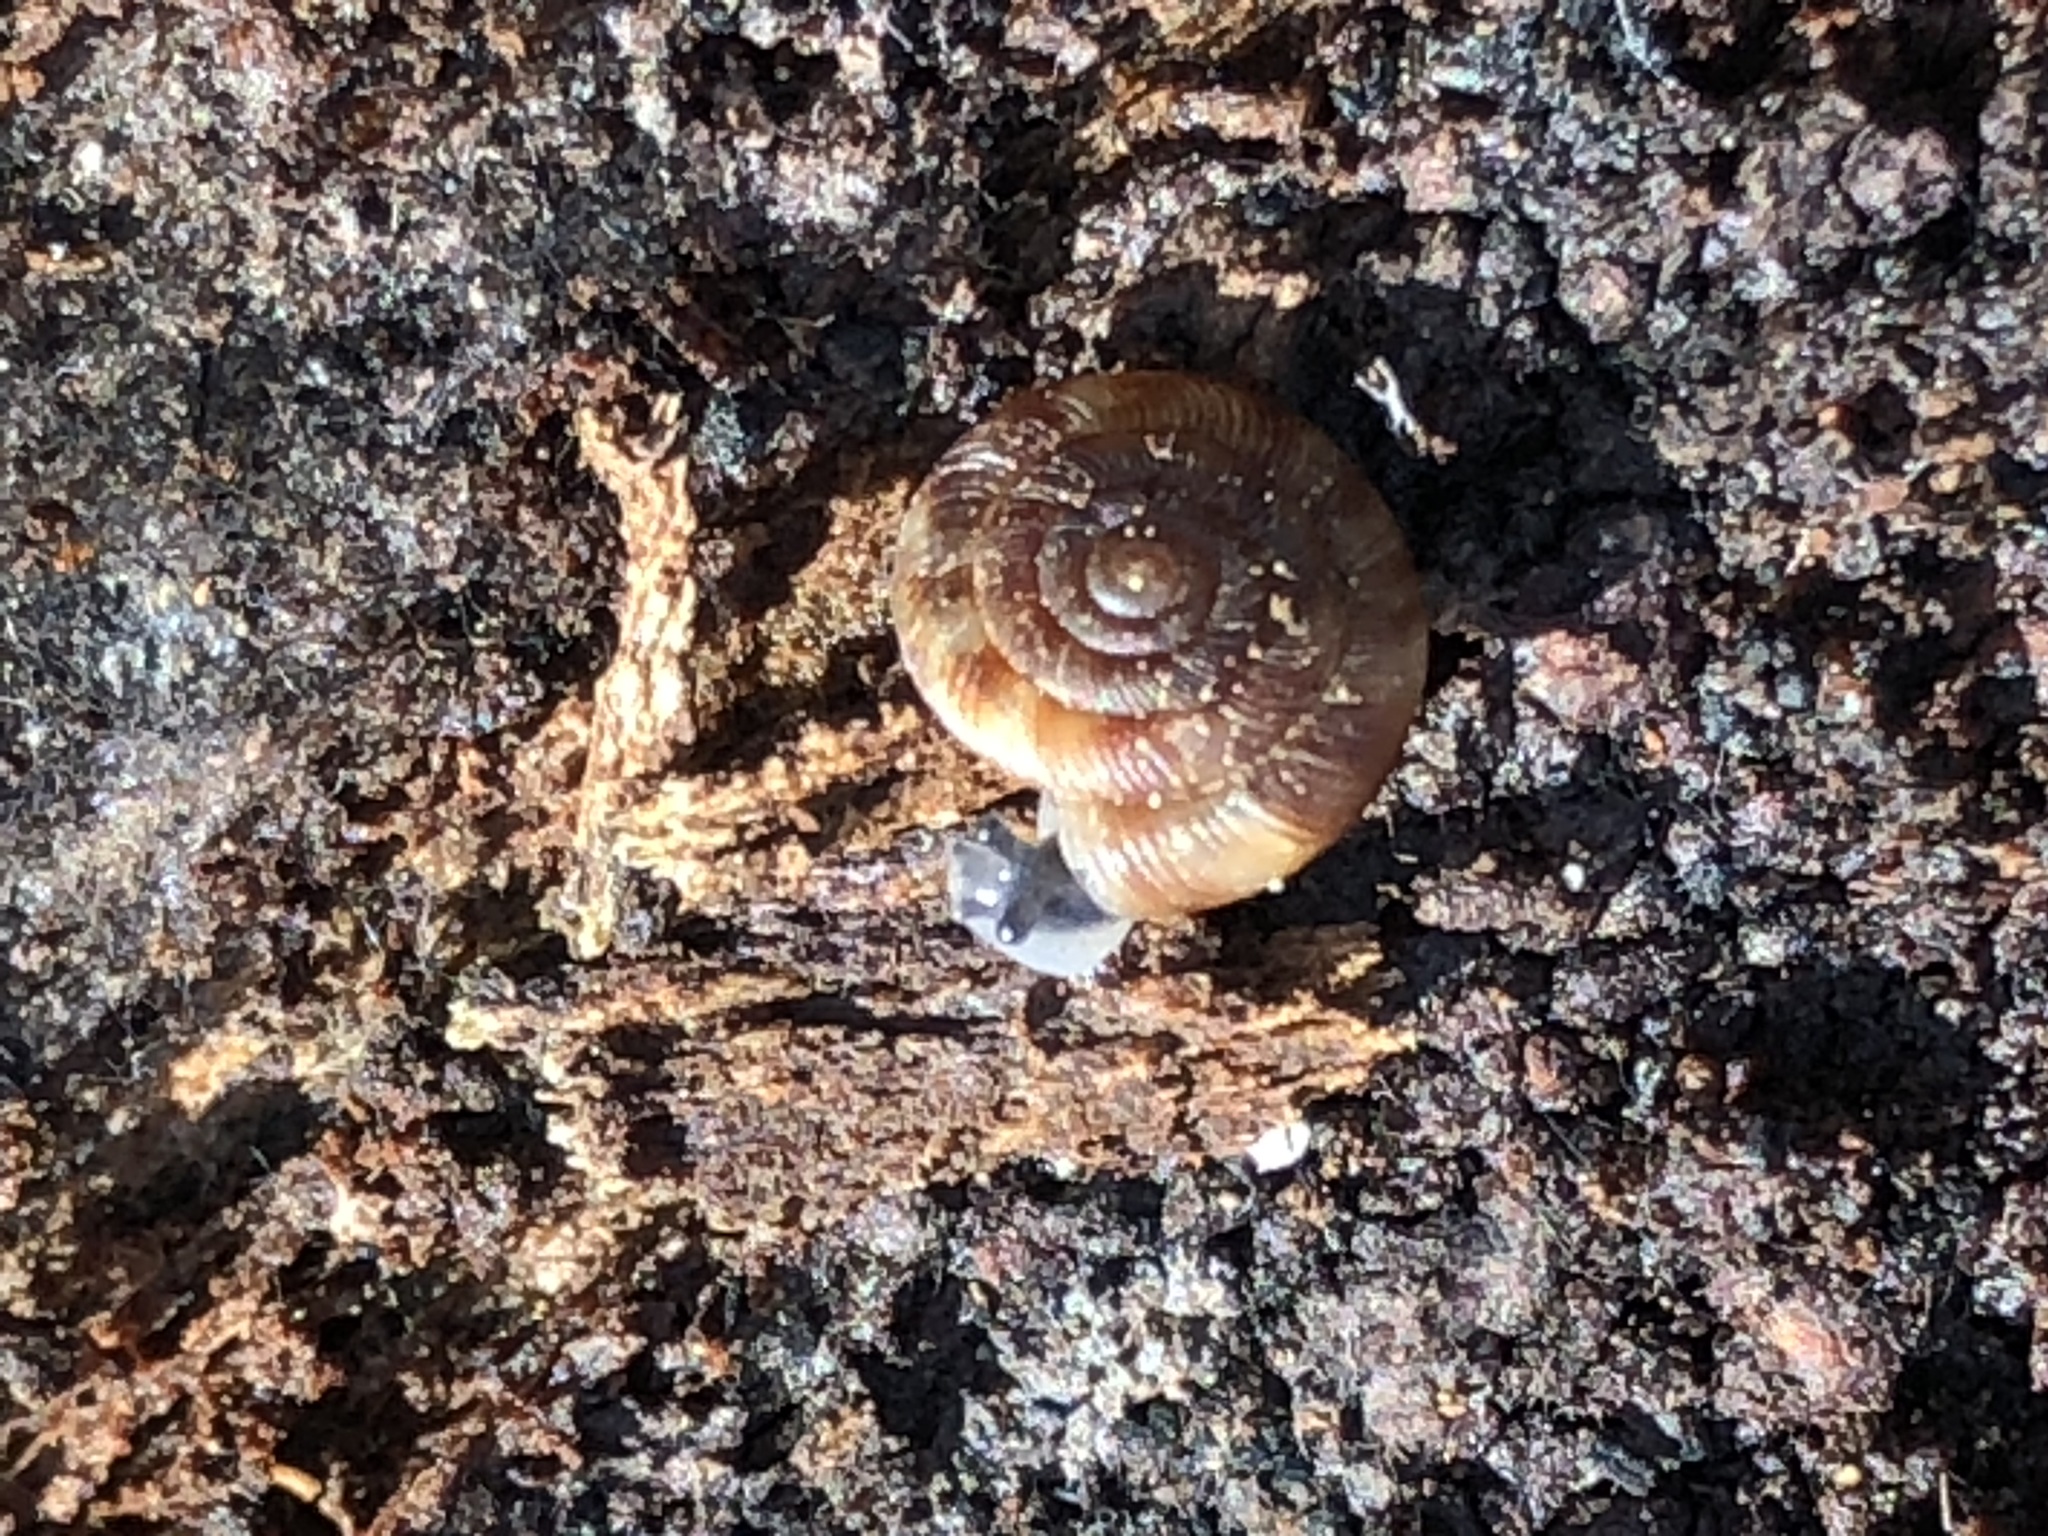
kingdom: Animalia
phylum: Mollusca
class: Gastropoda
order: Stylommatophora
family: Discidae
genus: Discus
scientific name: Discus rotundatus
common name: Rounded snail
